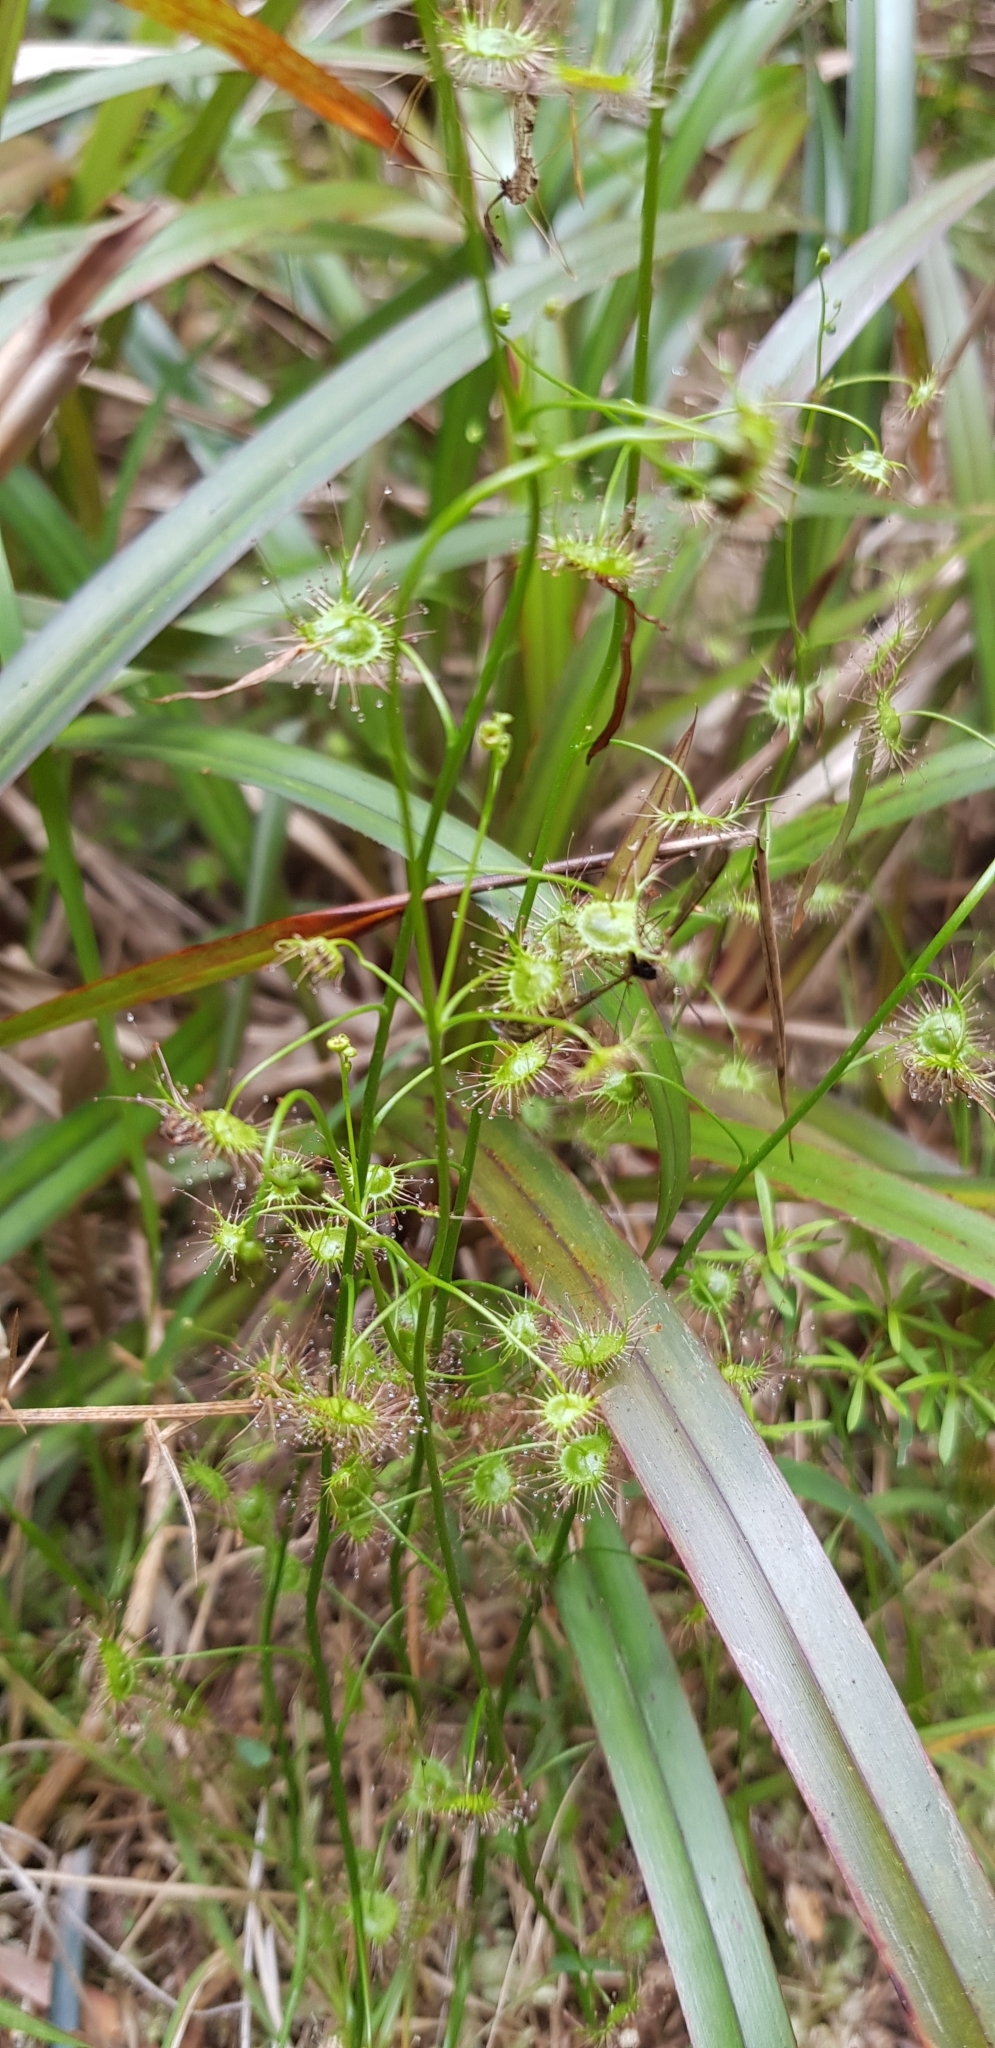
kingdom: Plantae
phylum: Tracheophyta
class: Magnoliopsida
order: Caryophyllales
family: Droseraceae
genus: Drosera
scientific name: Drosera peltata
